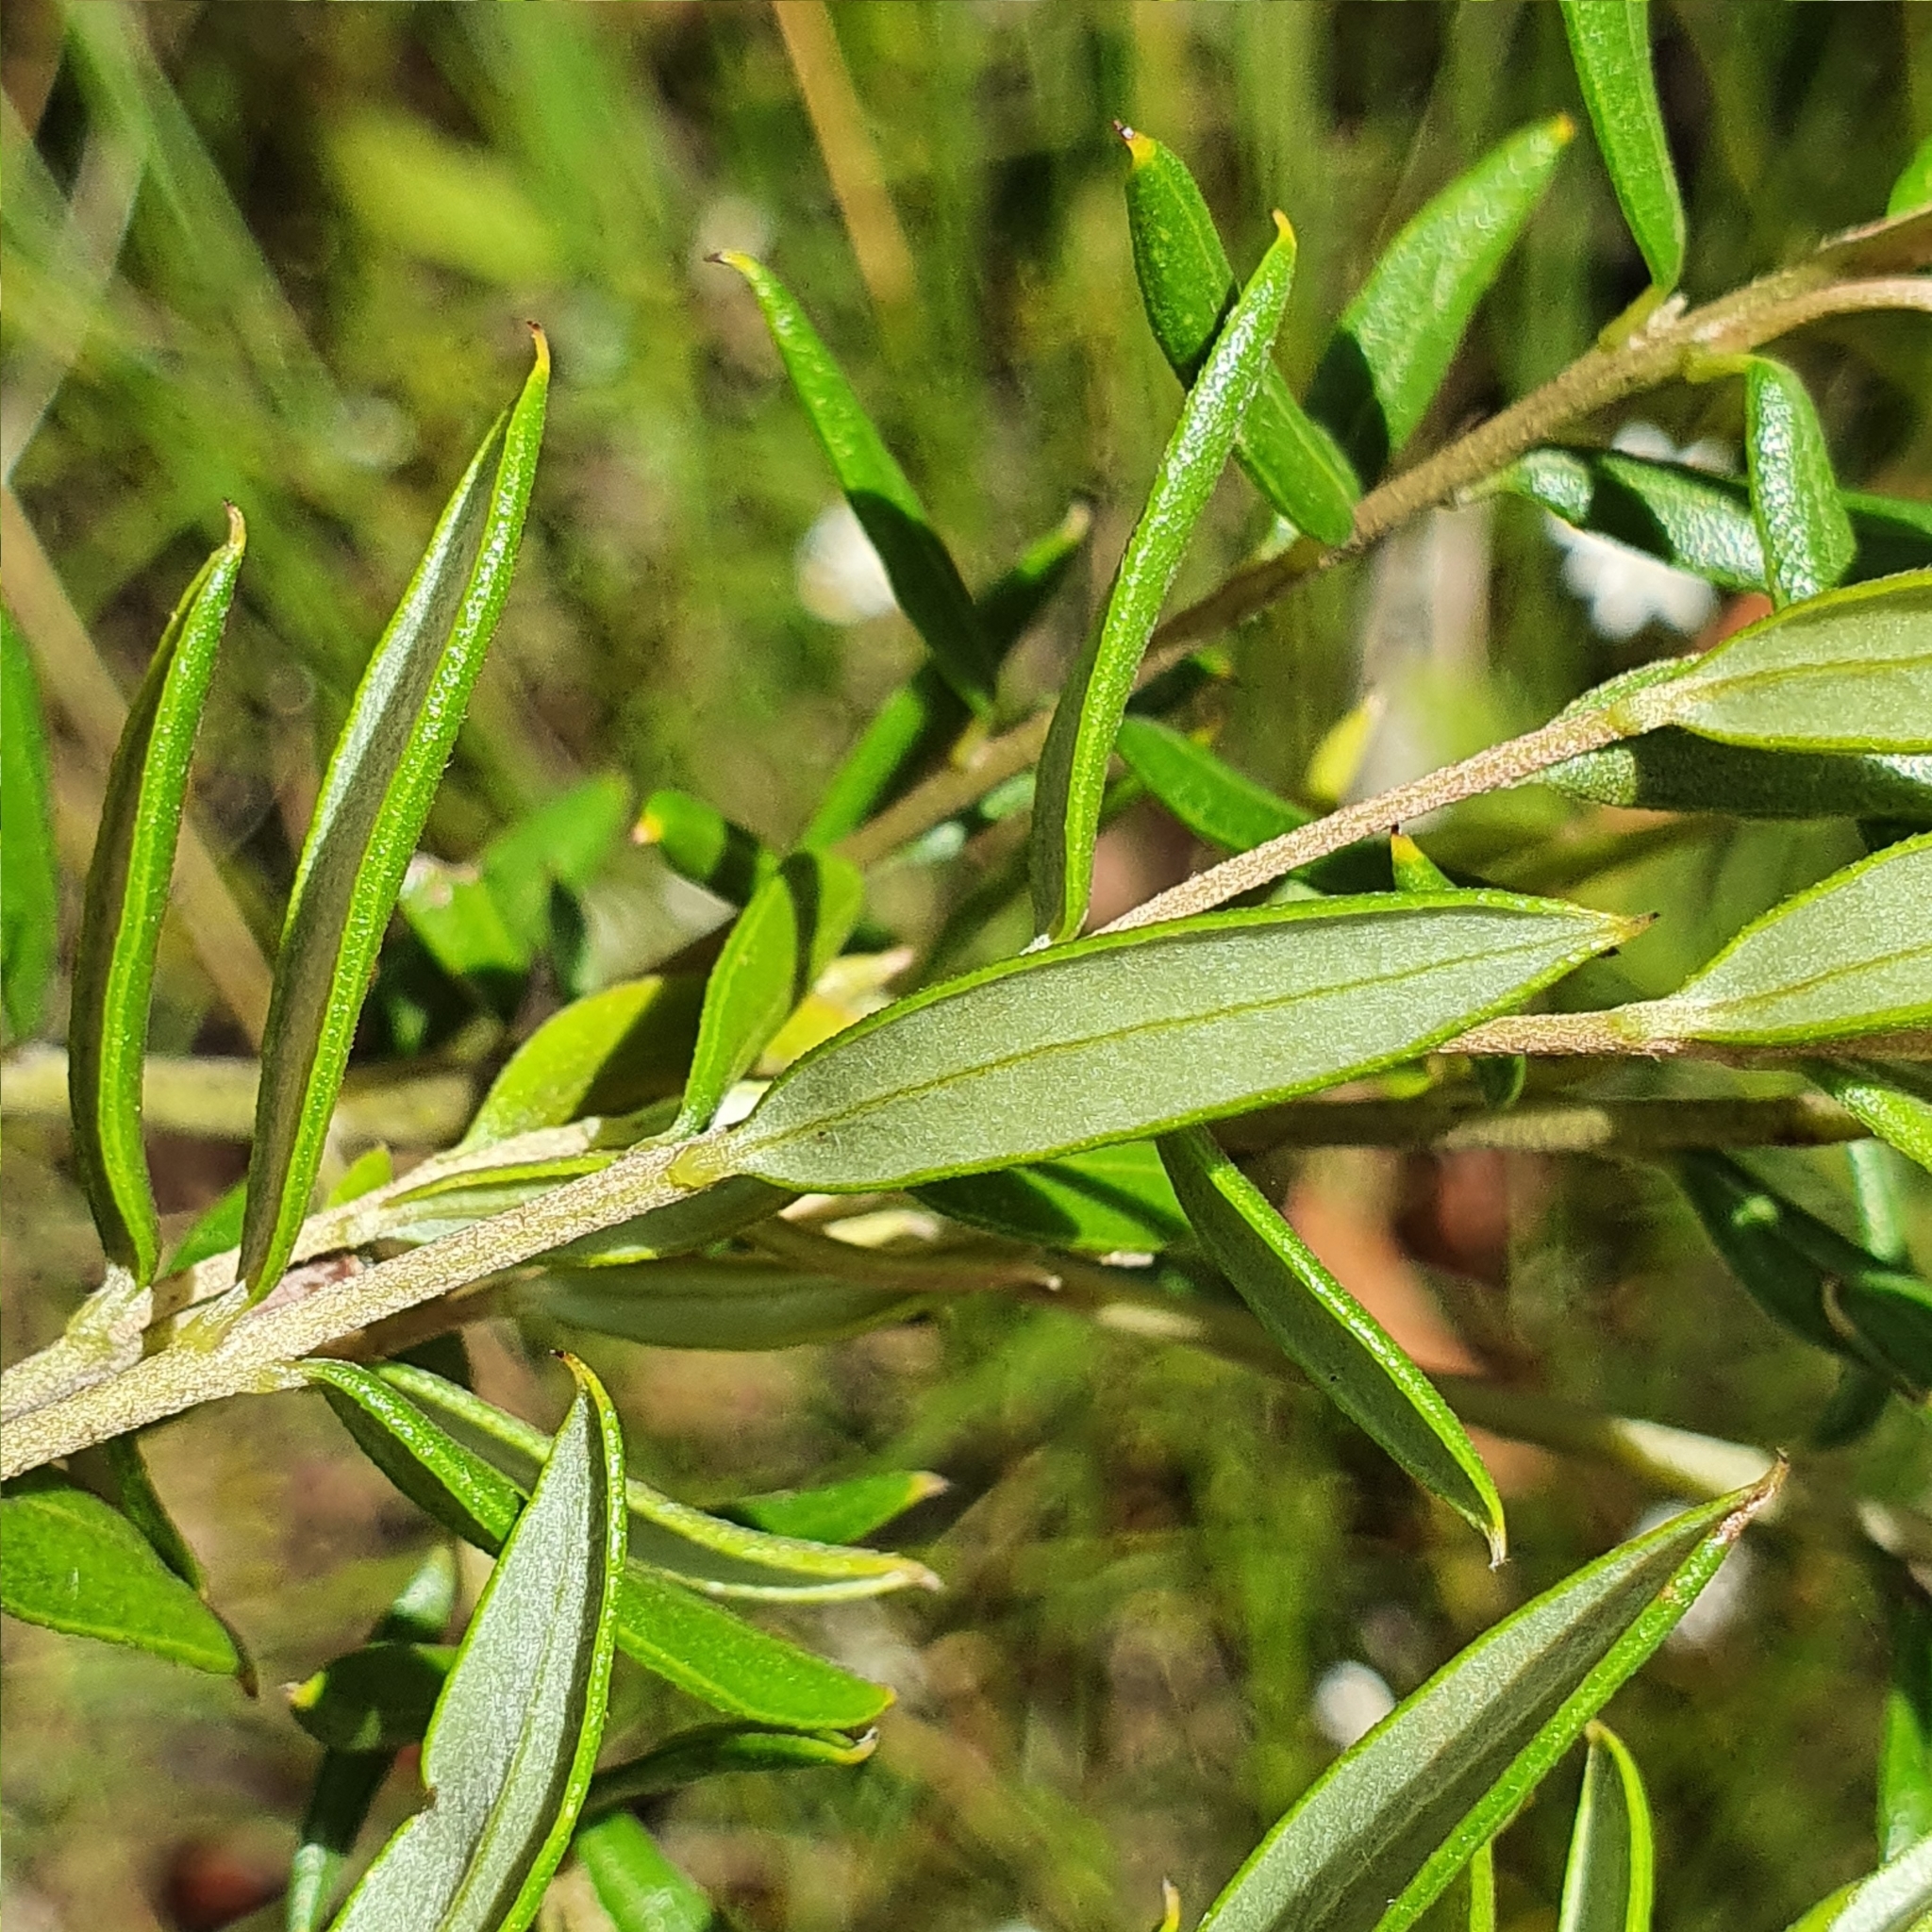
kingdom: Plantae
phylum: Tracheophyta
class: Magnoliopsida
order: Proteales
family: Proteaceae
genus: Grevillea
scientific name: Grevillea sphacelata
